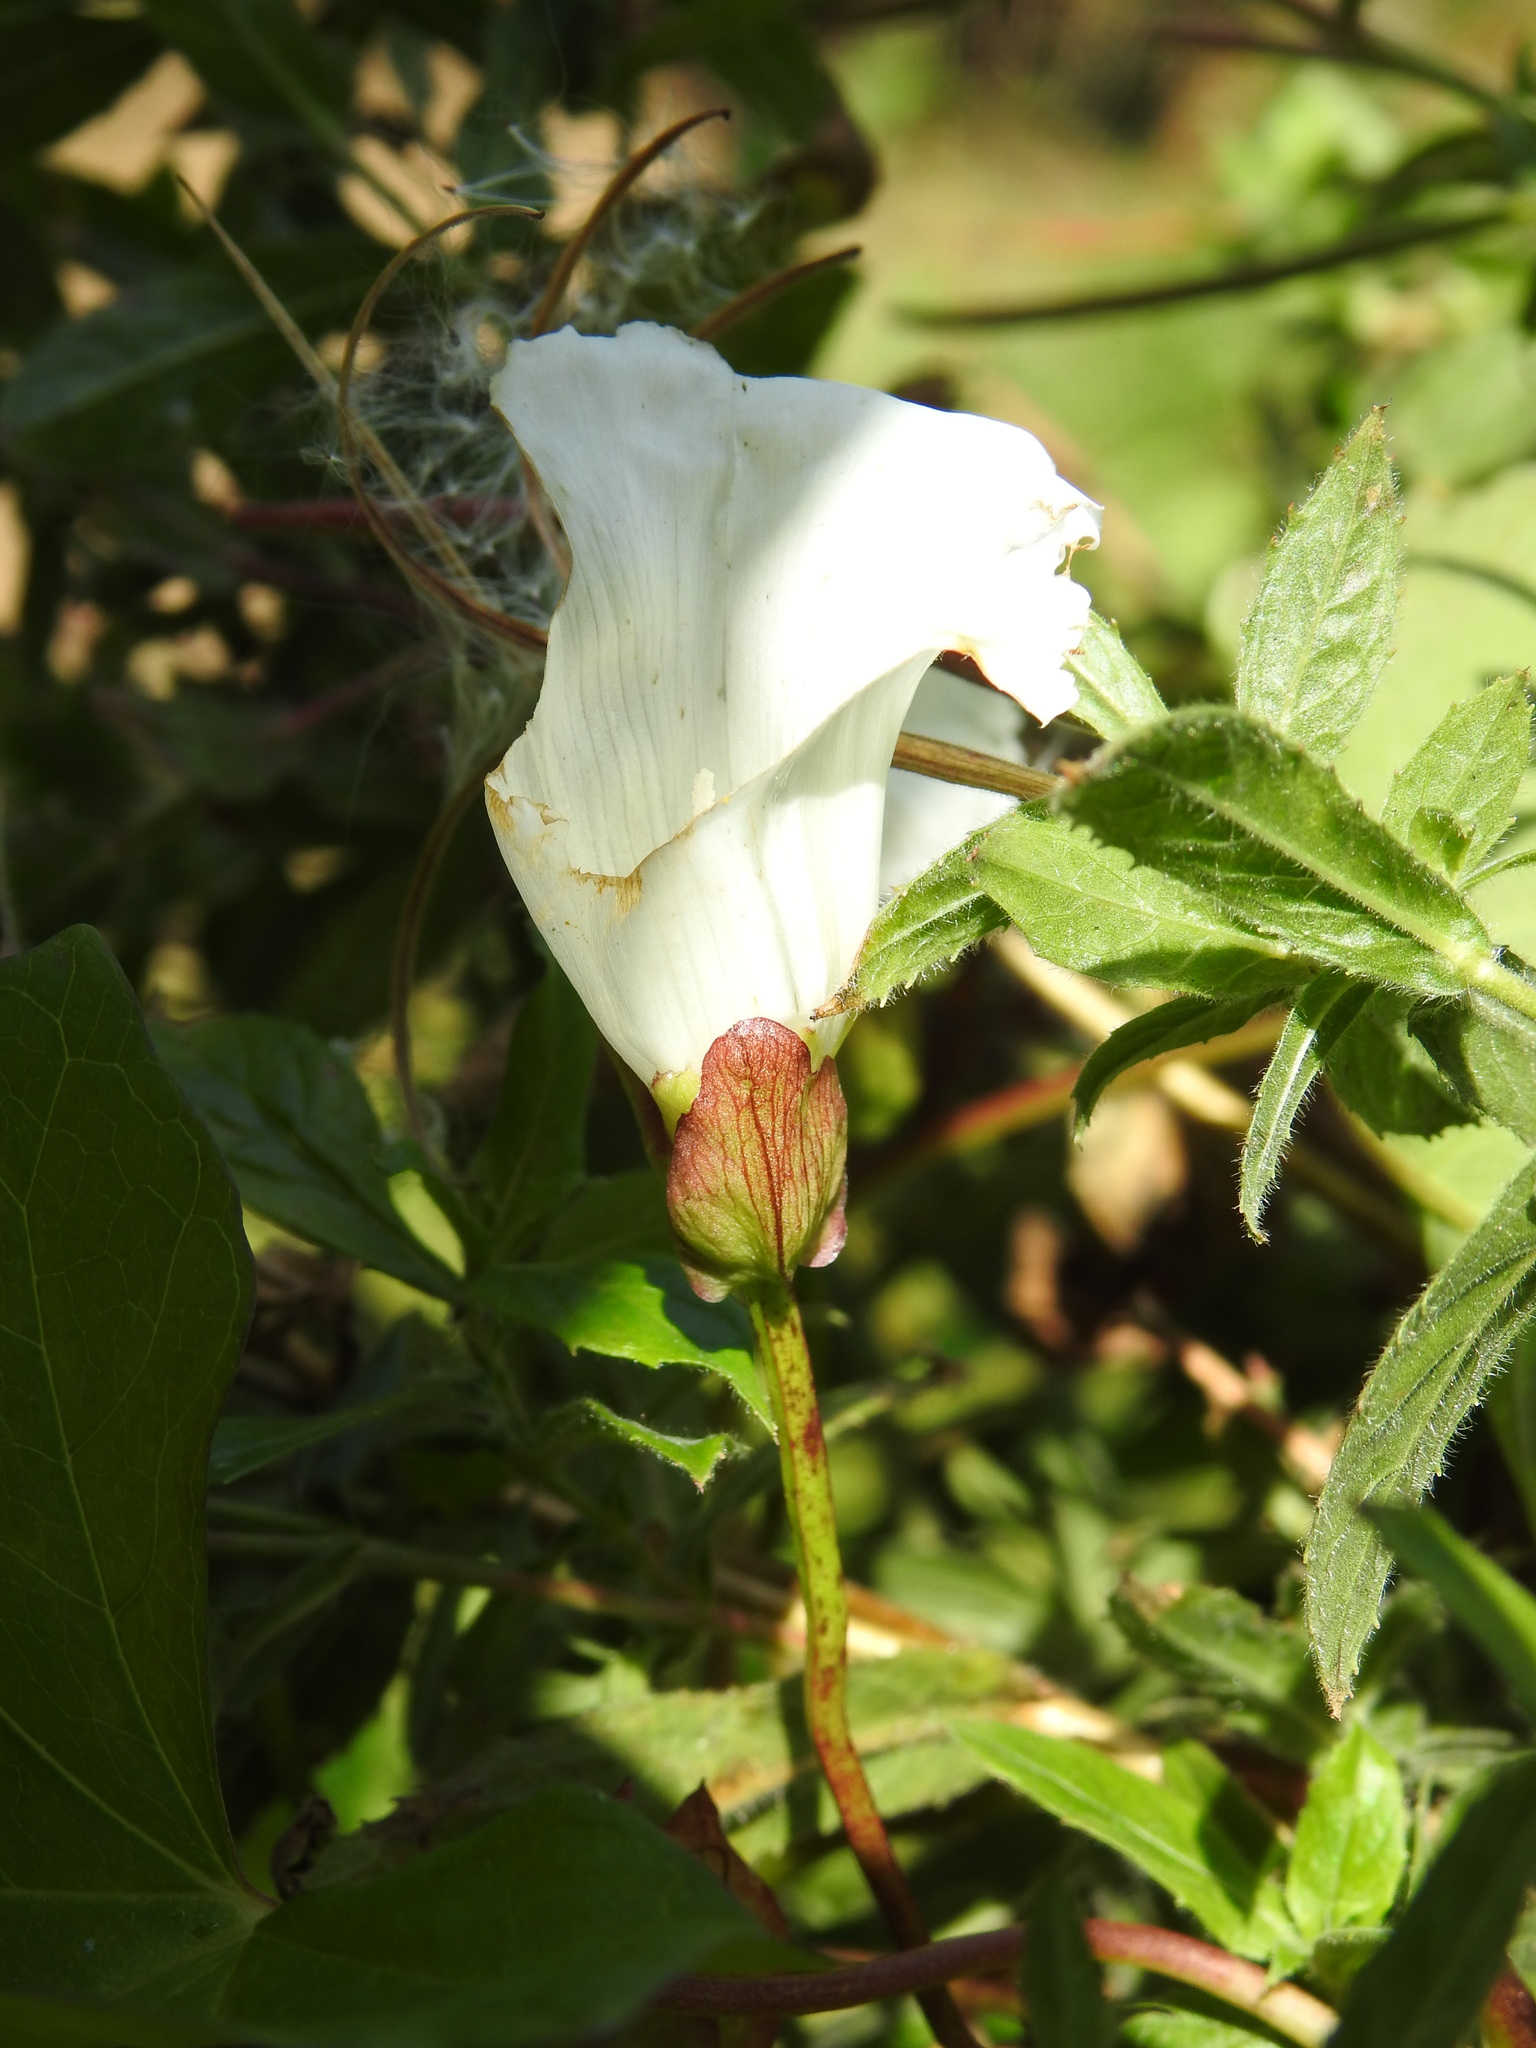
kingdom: Plantae
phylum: Tracheophyta
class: Magnoliopsida
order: Solanales
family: Convolvulaceae
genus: Calystegia
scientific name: Calystegia sepium
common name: Hedge bindweed
